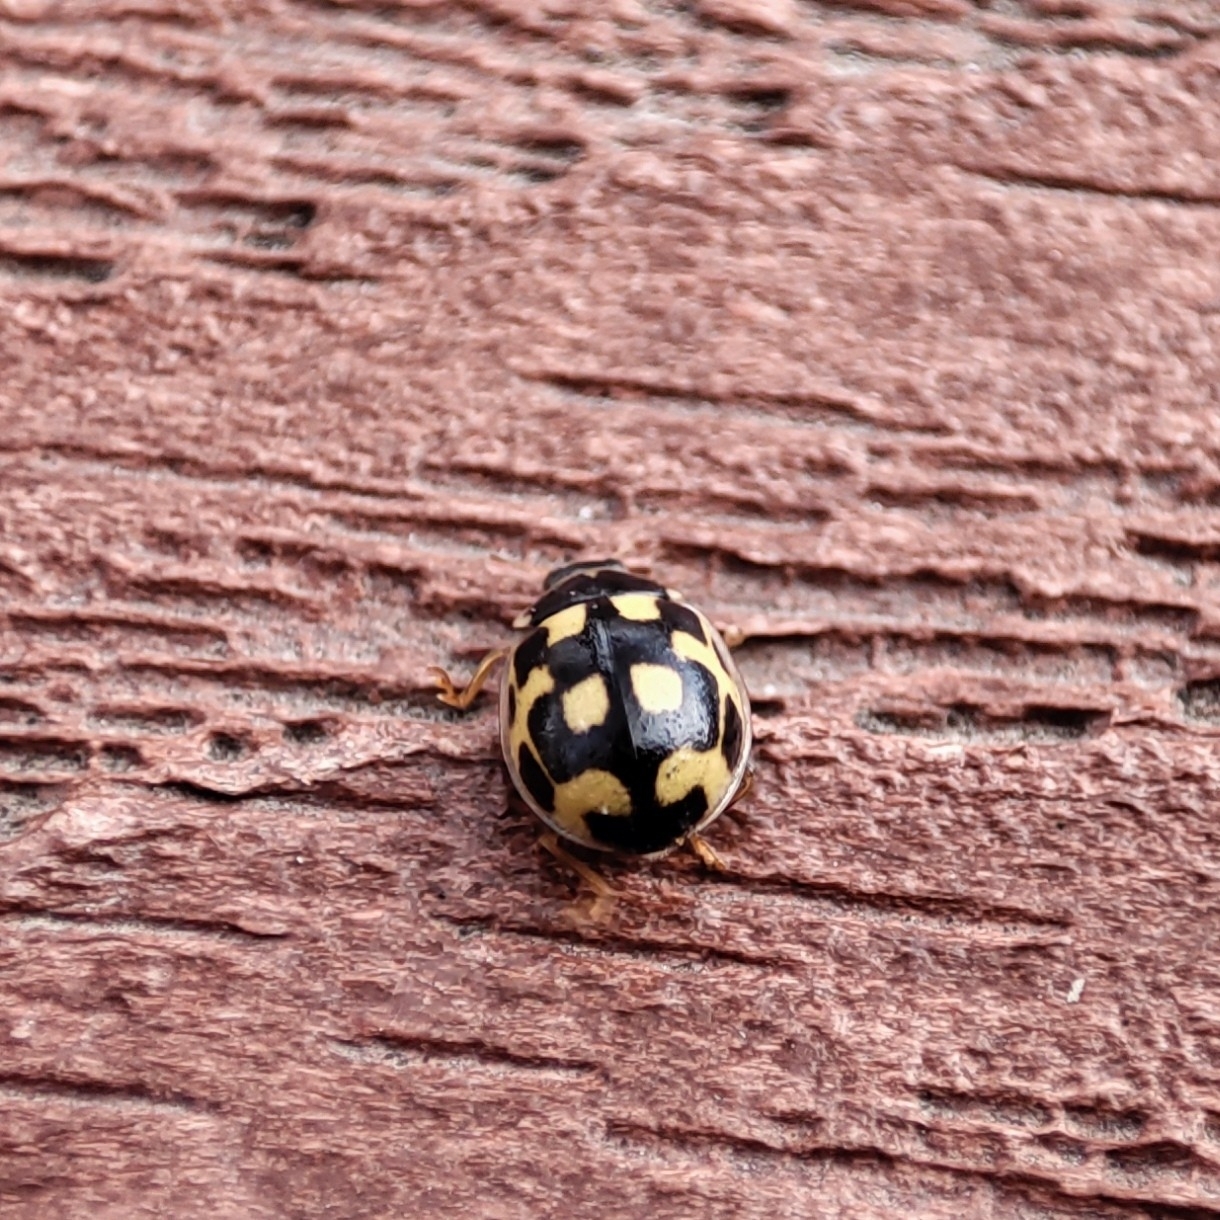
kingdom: Animalia
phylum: Arthropoda
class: Insecta
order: Coleoptera
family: Coccinellidae
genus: Propylaea
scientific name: Propylaea quatuordecimpunctata
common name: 14-spotted ladybird beetle
